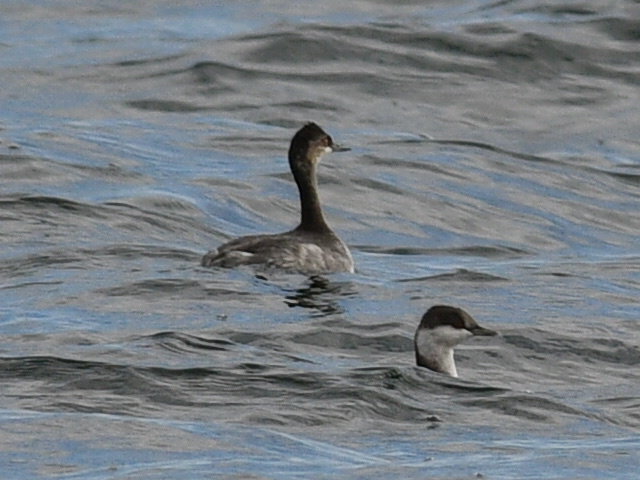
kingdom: Animalia
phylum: Chordata
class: Aves
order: Podicipediformes
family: Podicipedidae
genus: Podiceps
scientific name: Podiceps nigricollis
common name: Black-necked grebe
